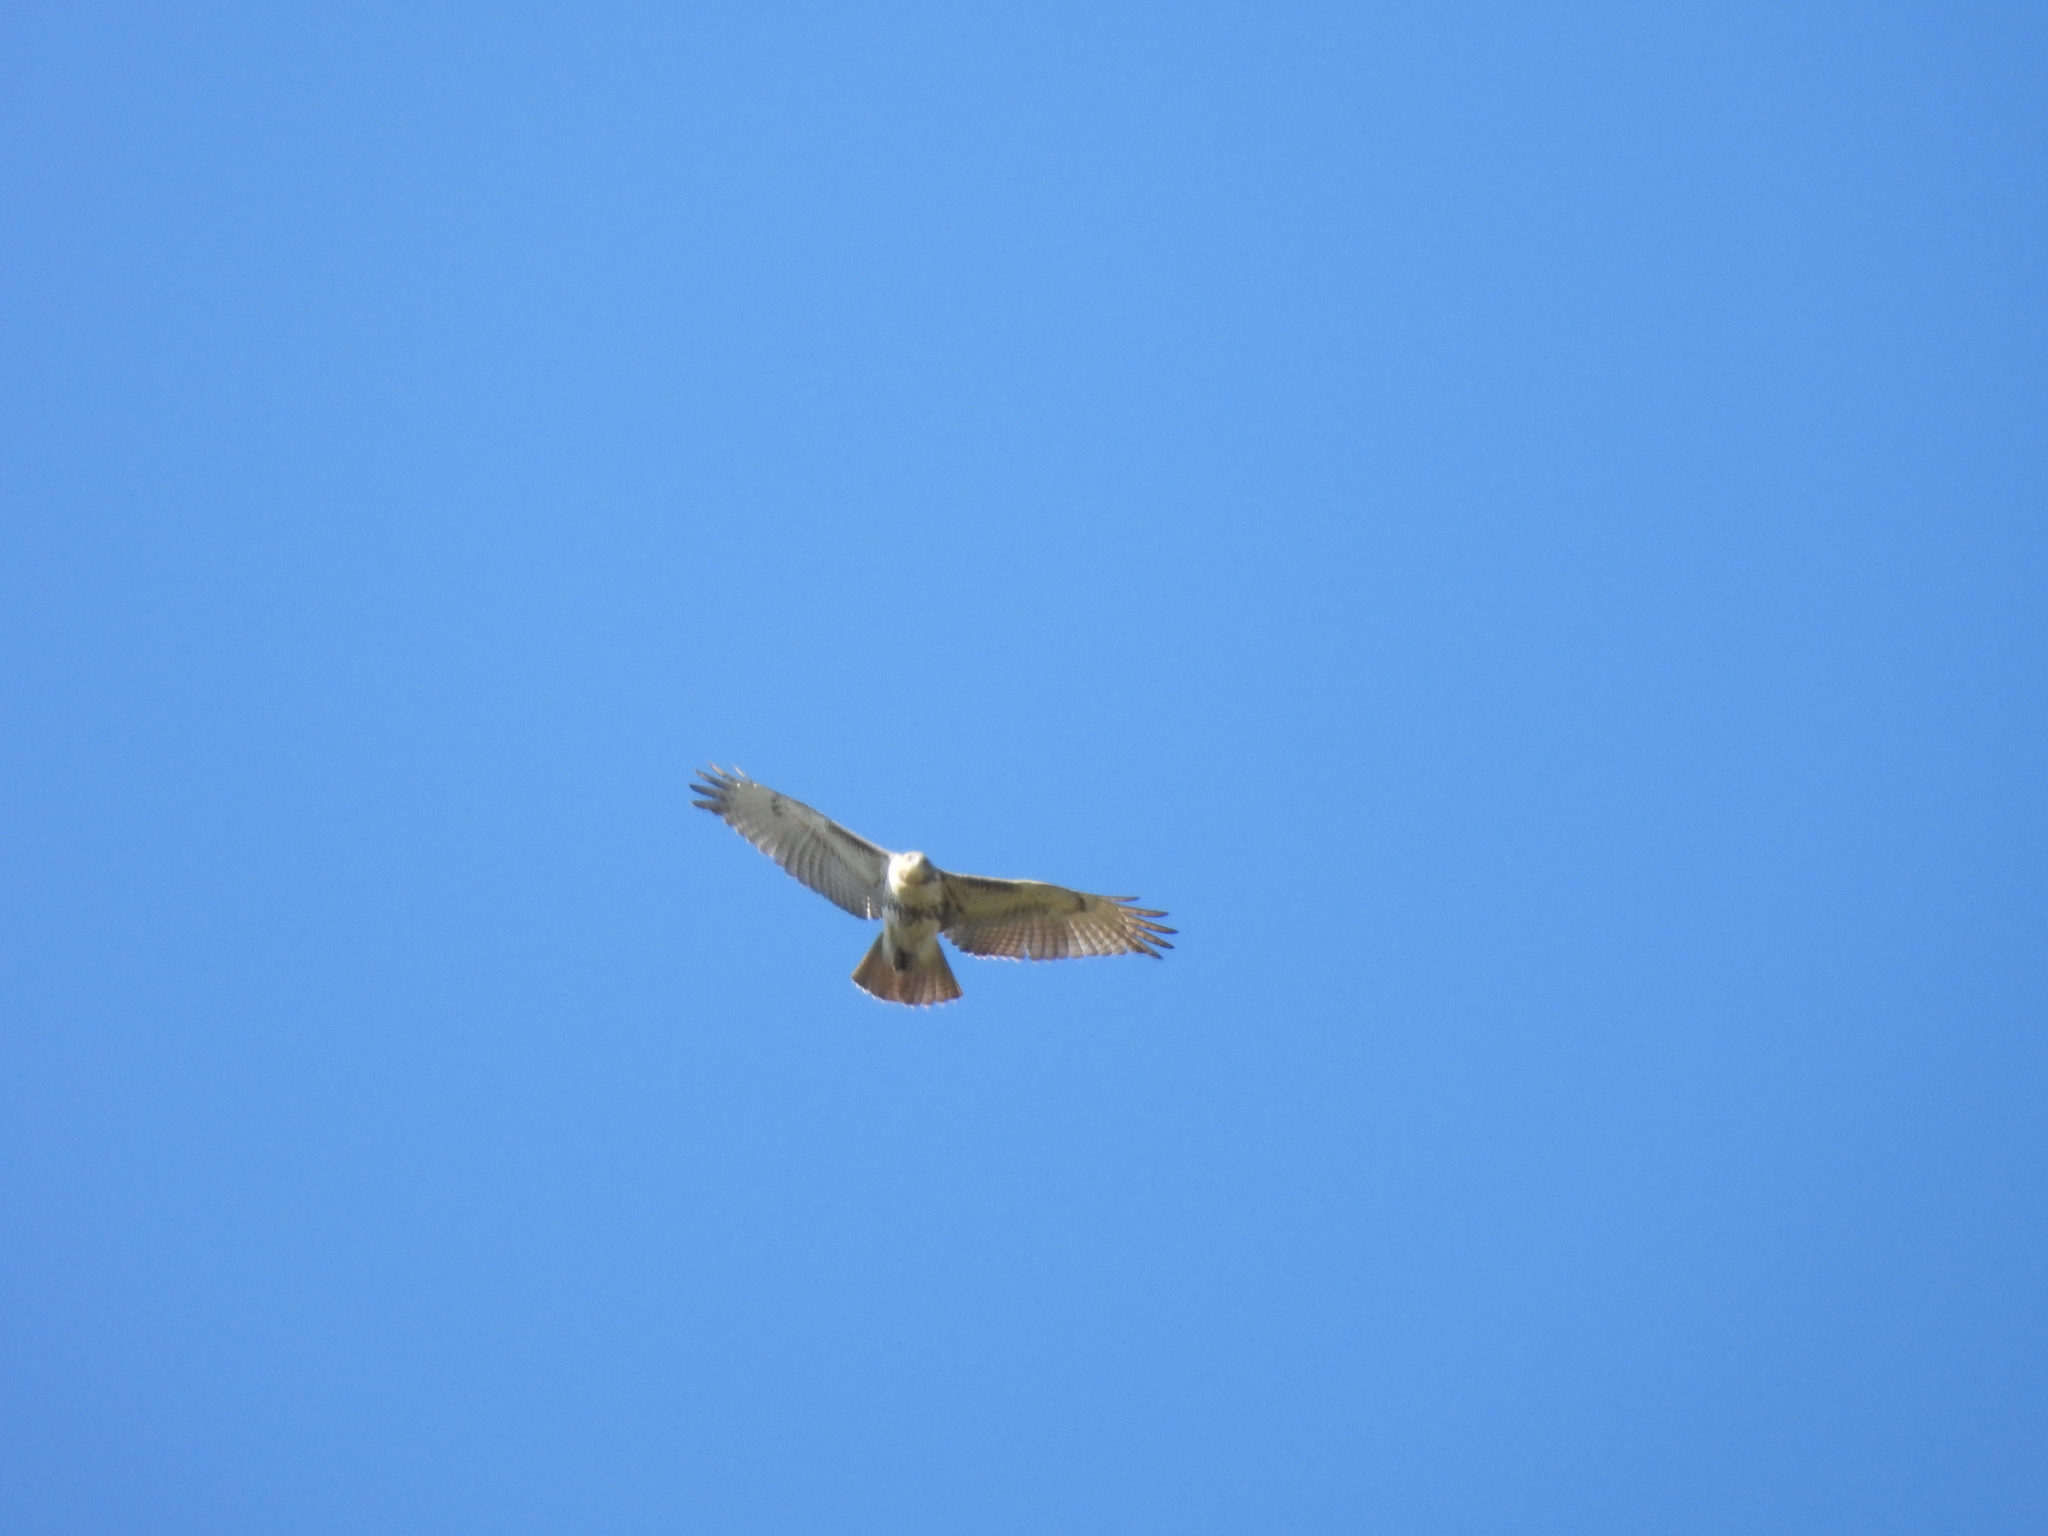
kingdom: Animalia
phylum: Chordata
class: Aves
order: Accipitriformes
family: Accipitridae
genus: Buteo
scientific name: Buteo jamaicensis
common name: Red-tailed hawk
